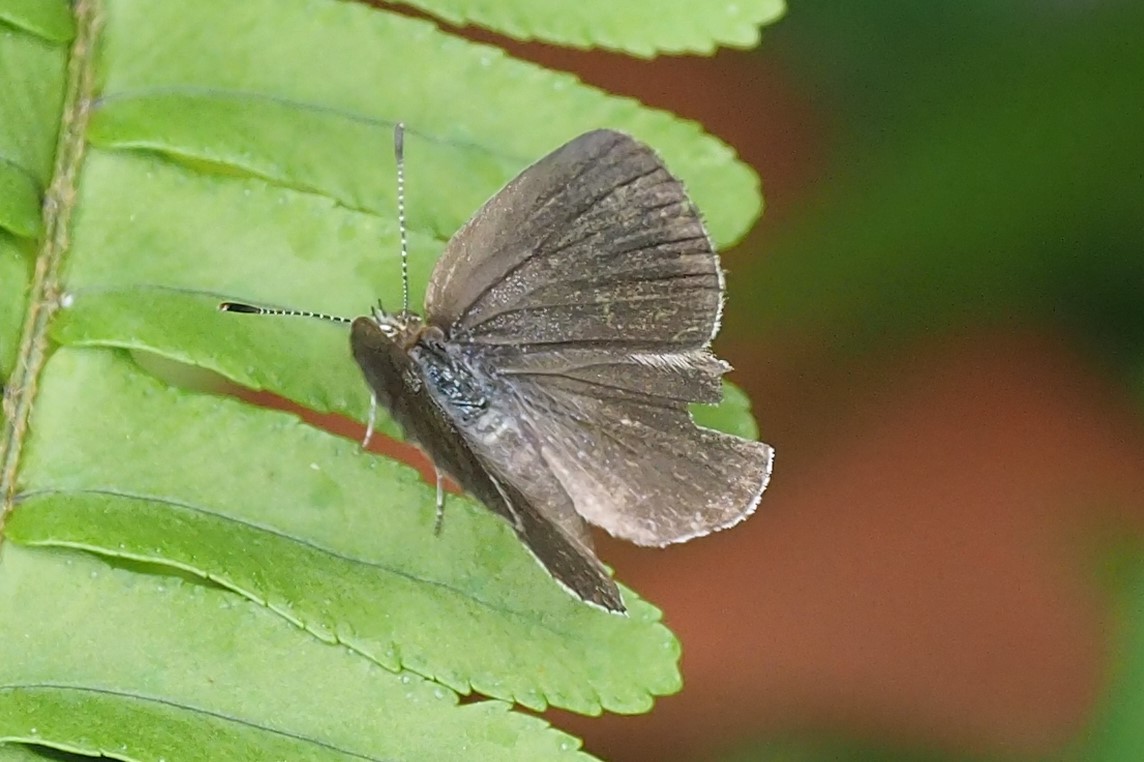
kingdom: Animalia
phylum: Arthropoda
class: Insecta
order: Lepidoptera
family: Lycaenidae
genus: Pseudozizeeria
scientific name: Pseudozizeeria maha
